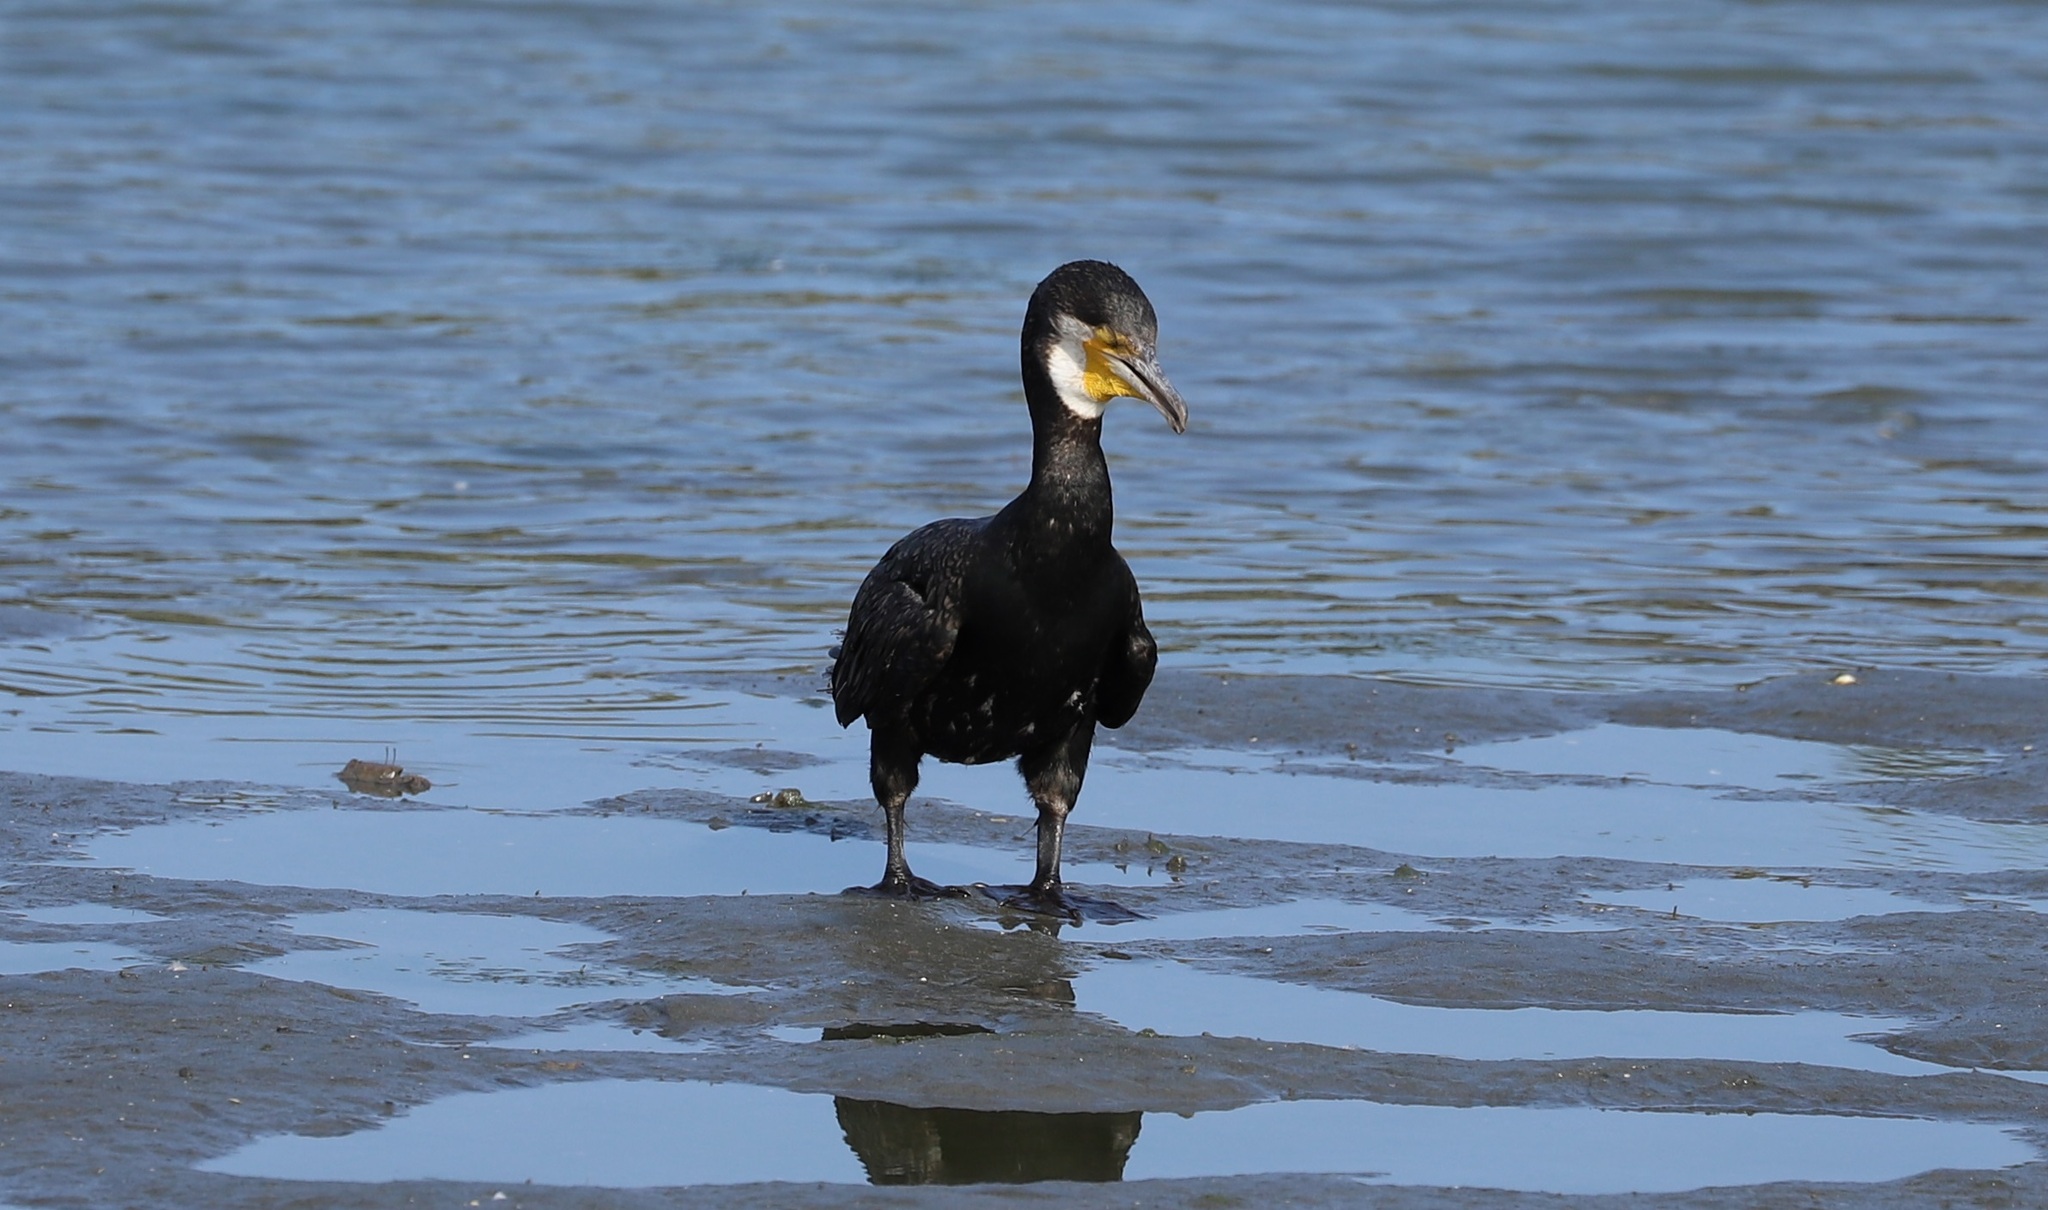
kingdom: Animalia
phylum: Chordata
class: Aves
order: Suliformes
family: Phalacrocoracidae
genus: Phalacrocorax
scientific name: Phalacrocorax carbo
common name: Great cormorant
